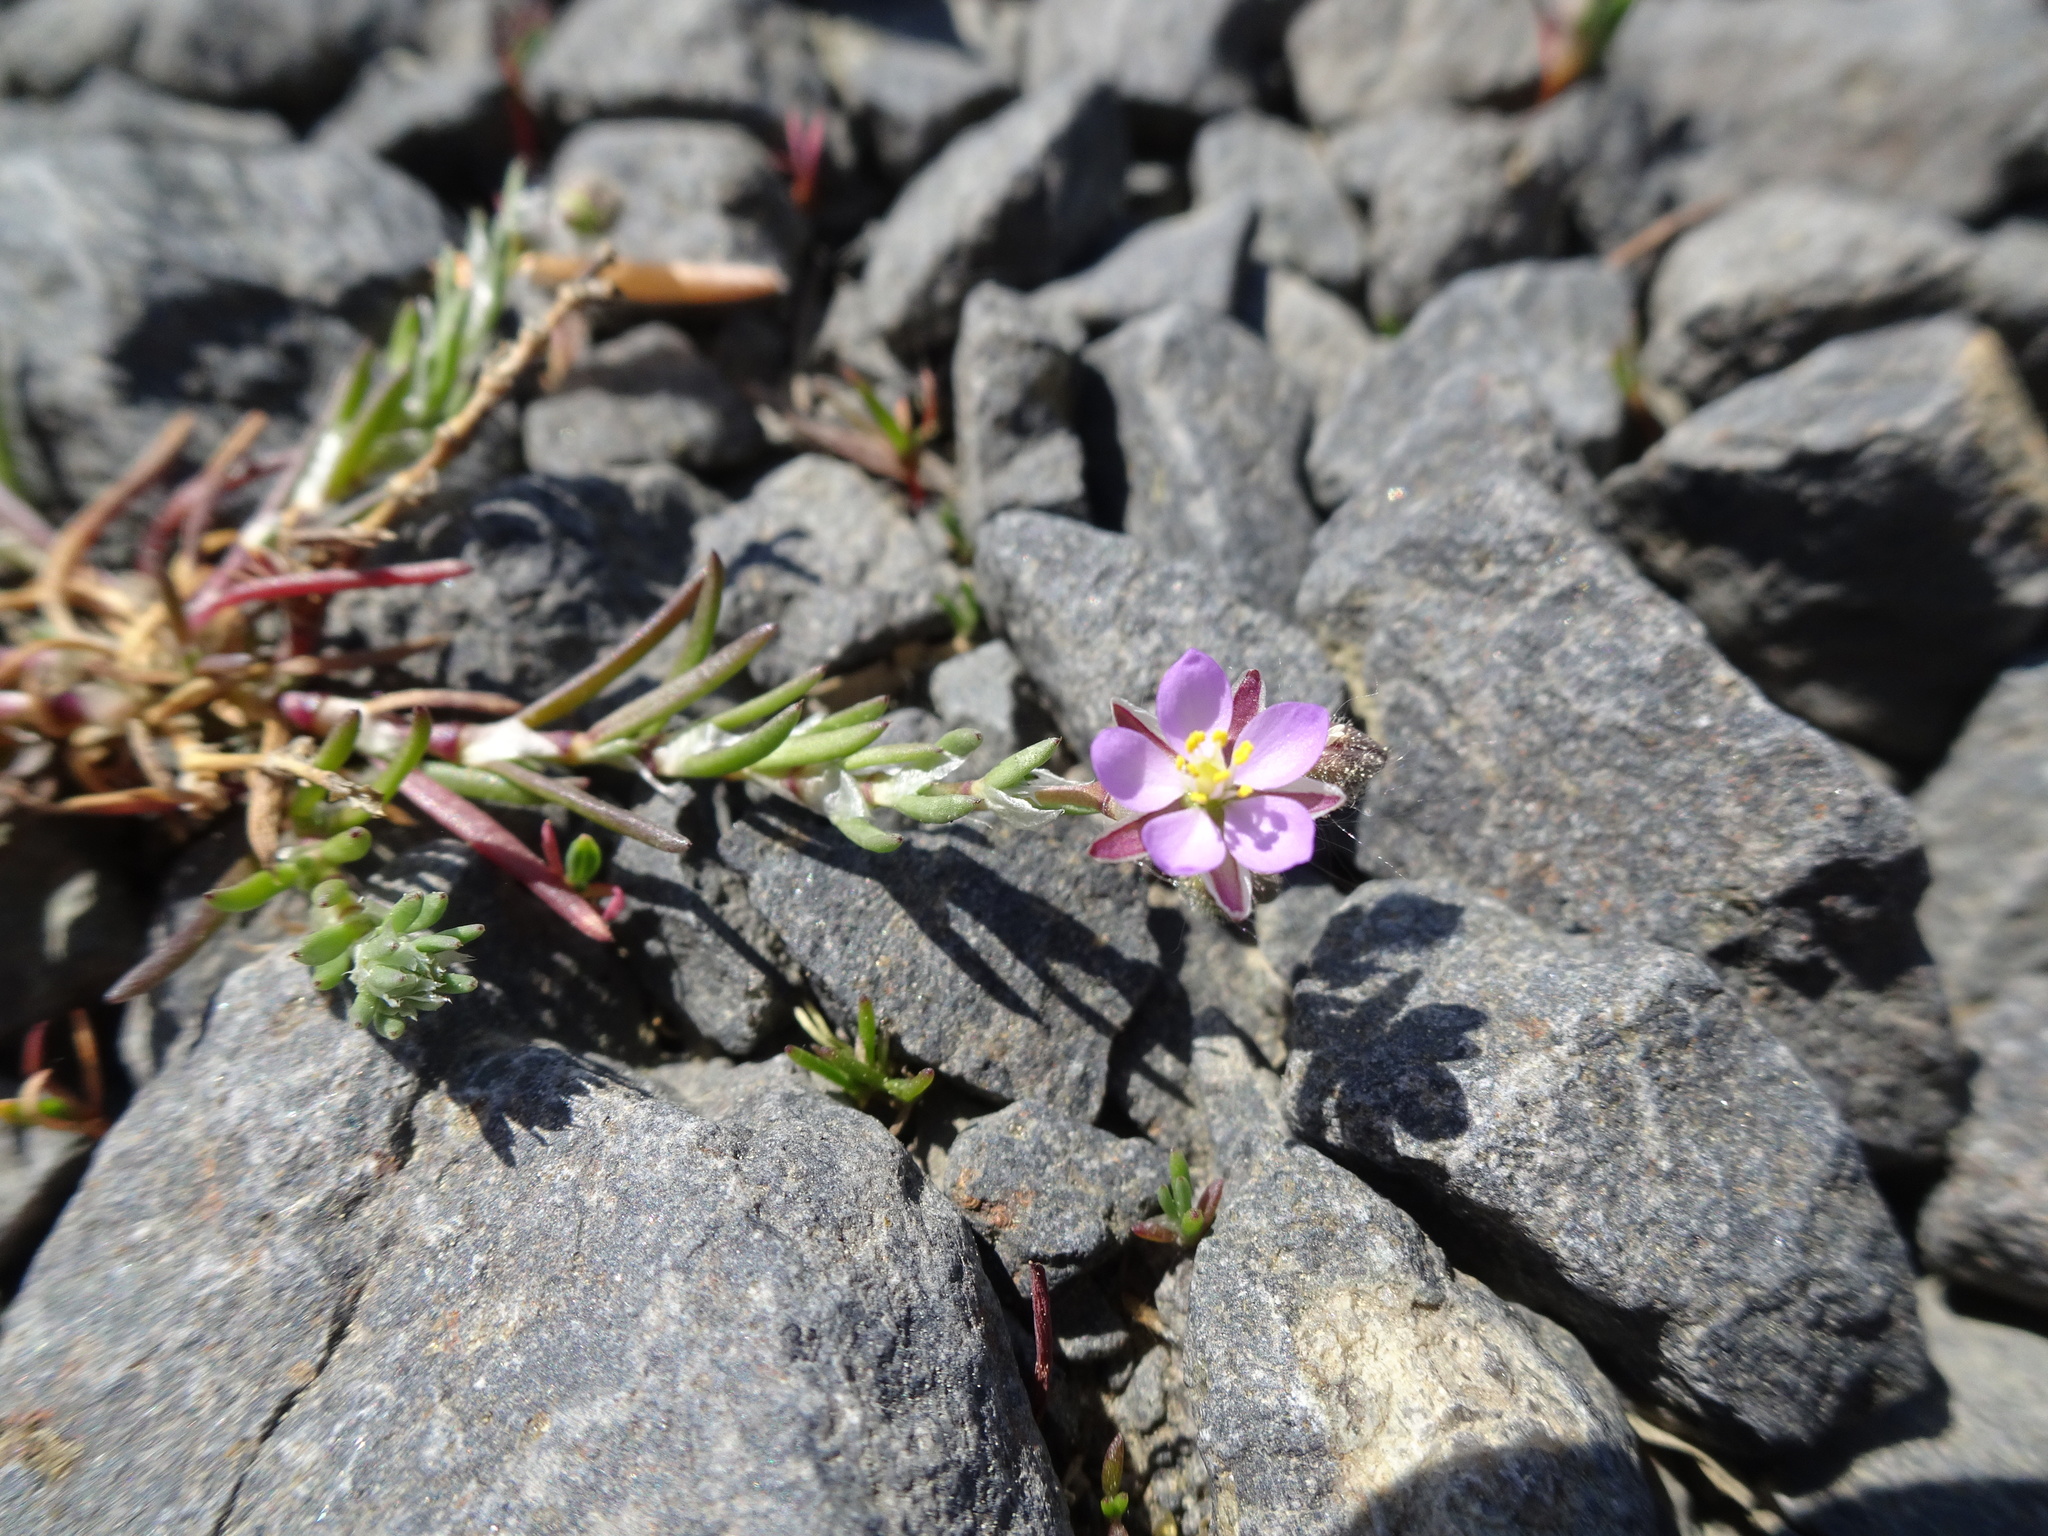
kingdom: Plantae
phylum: Tracheophyta
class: Magnoliopsida
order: Caryophyllales
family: Caryophyllaceae
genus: Spergularia
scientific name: Spergularia rubra
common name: Red sand-spurrey
